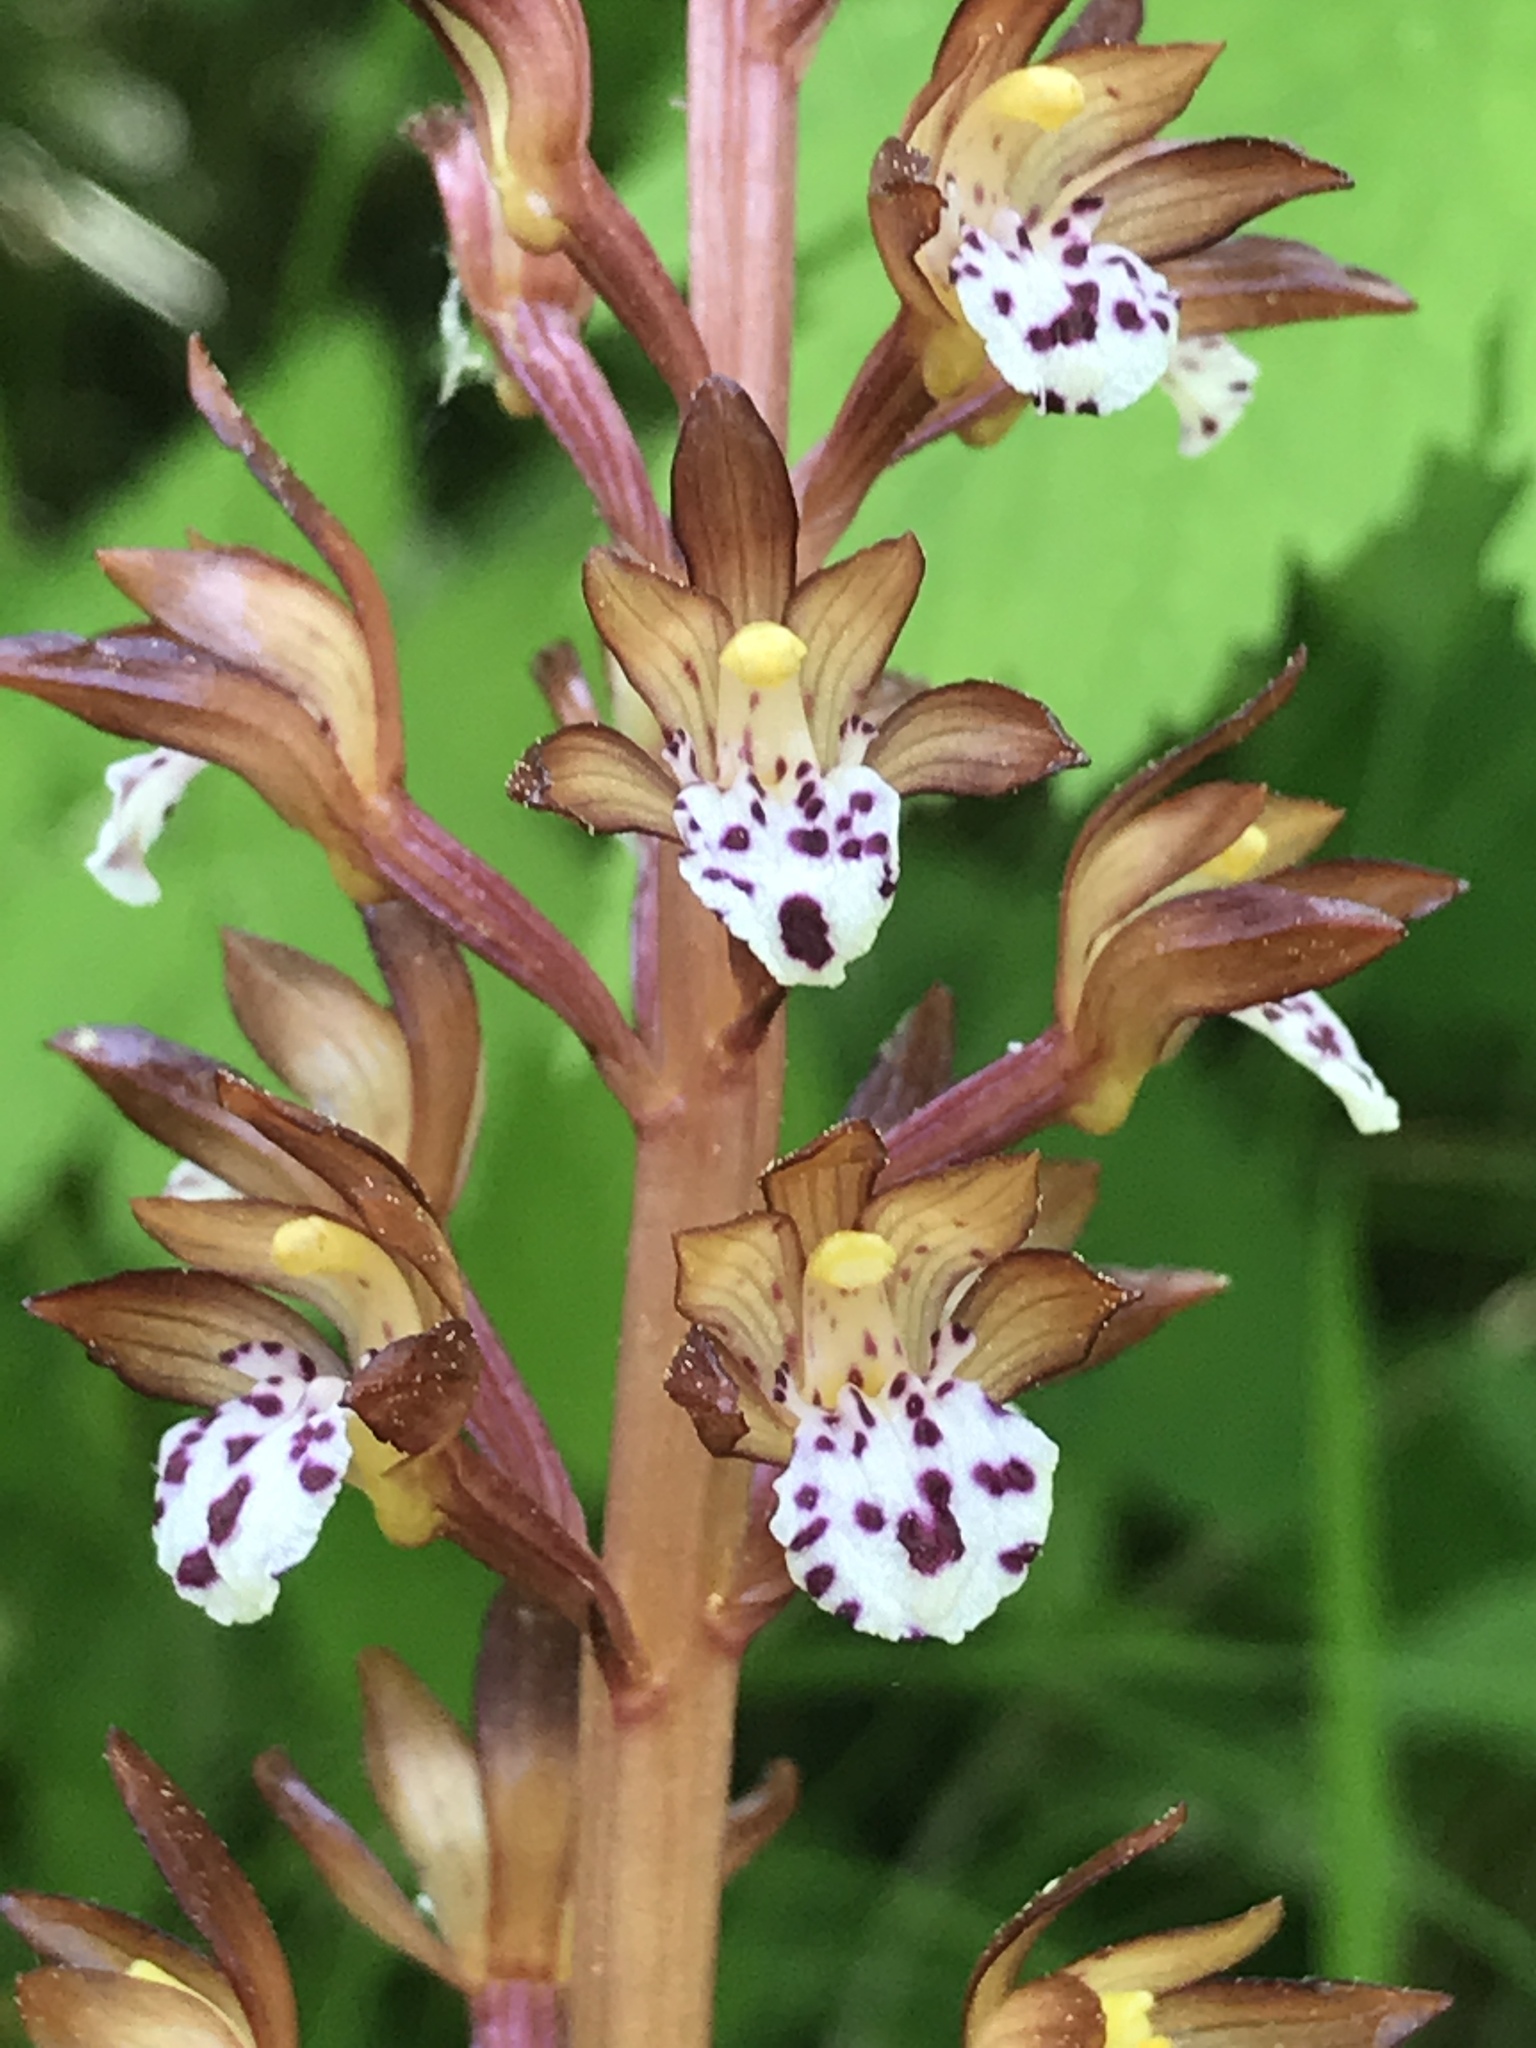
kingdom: Plantae
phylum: Tracheophyta
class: Liliopsida
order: Asparagales
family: Orchidaceae
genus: Corallorhiza
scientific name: Corallorhiza maculata
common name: Spotted coralroot
